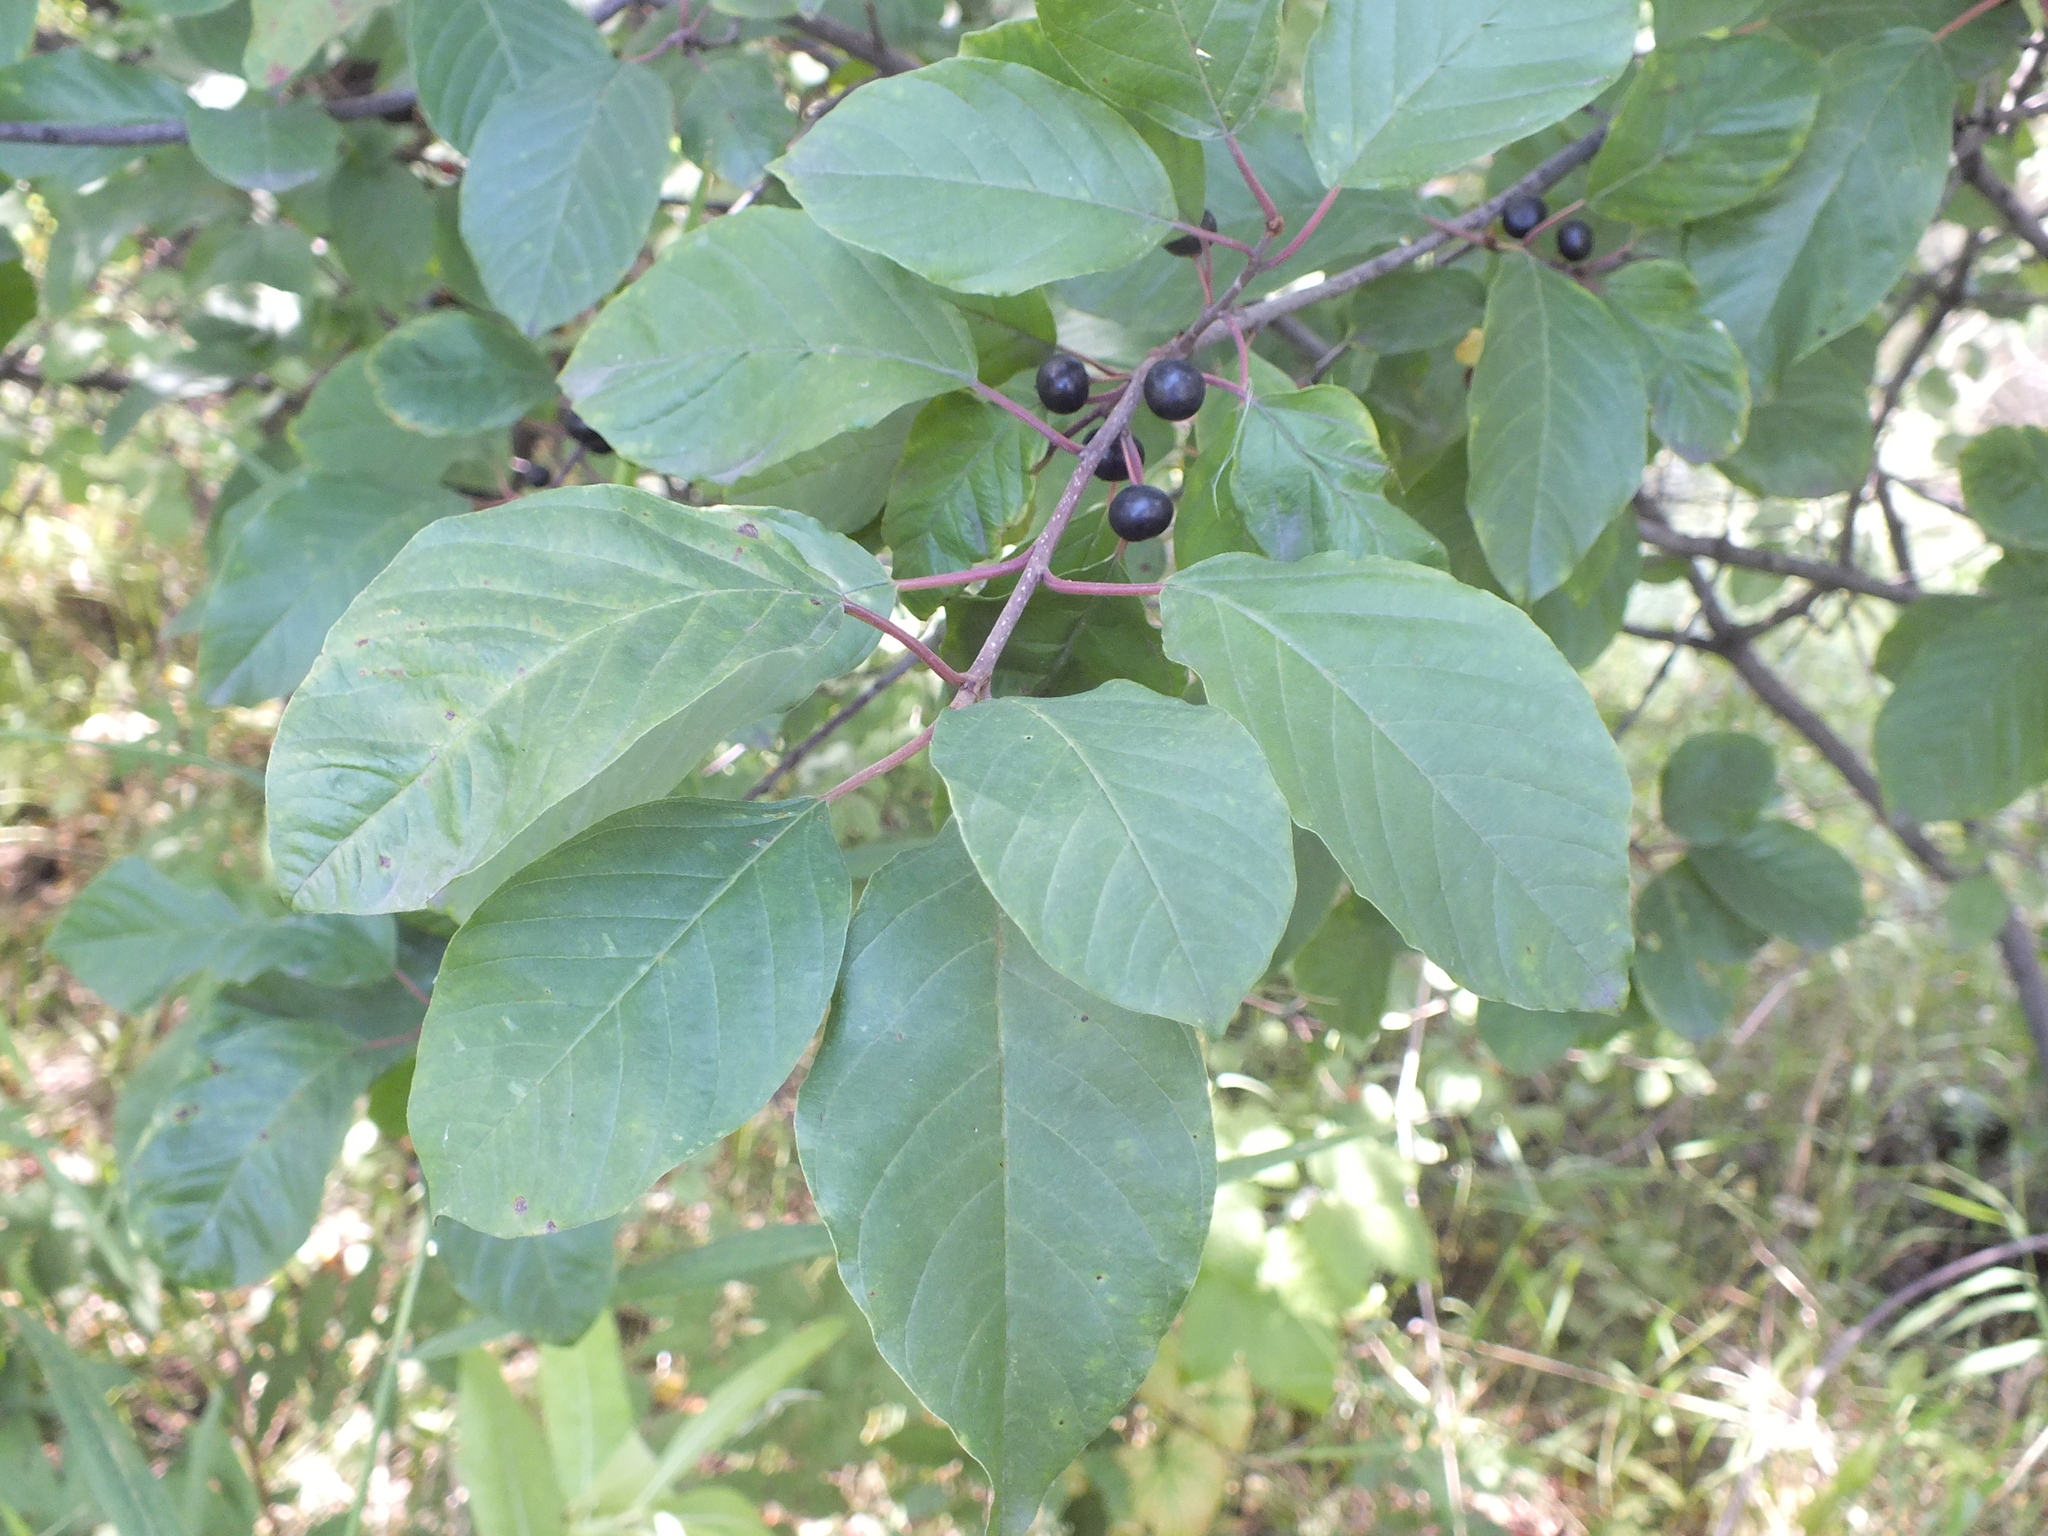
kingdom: Plantae
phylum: Tracheophyta
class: Magnoliopsida
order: Rosales
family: Rhamnaceae
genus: Frangula
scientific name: Frangula alnus
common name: Alder buckthorn
